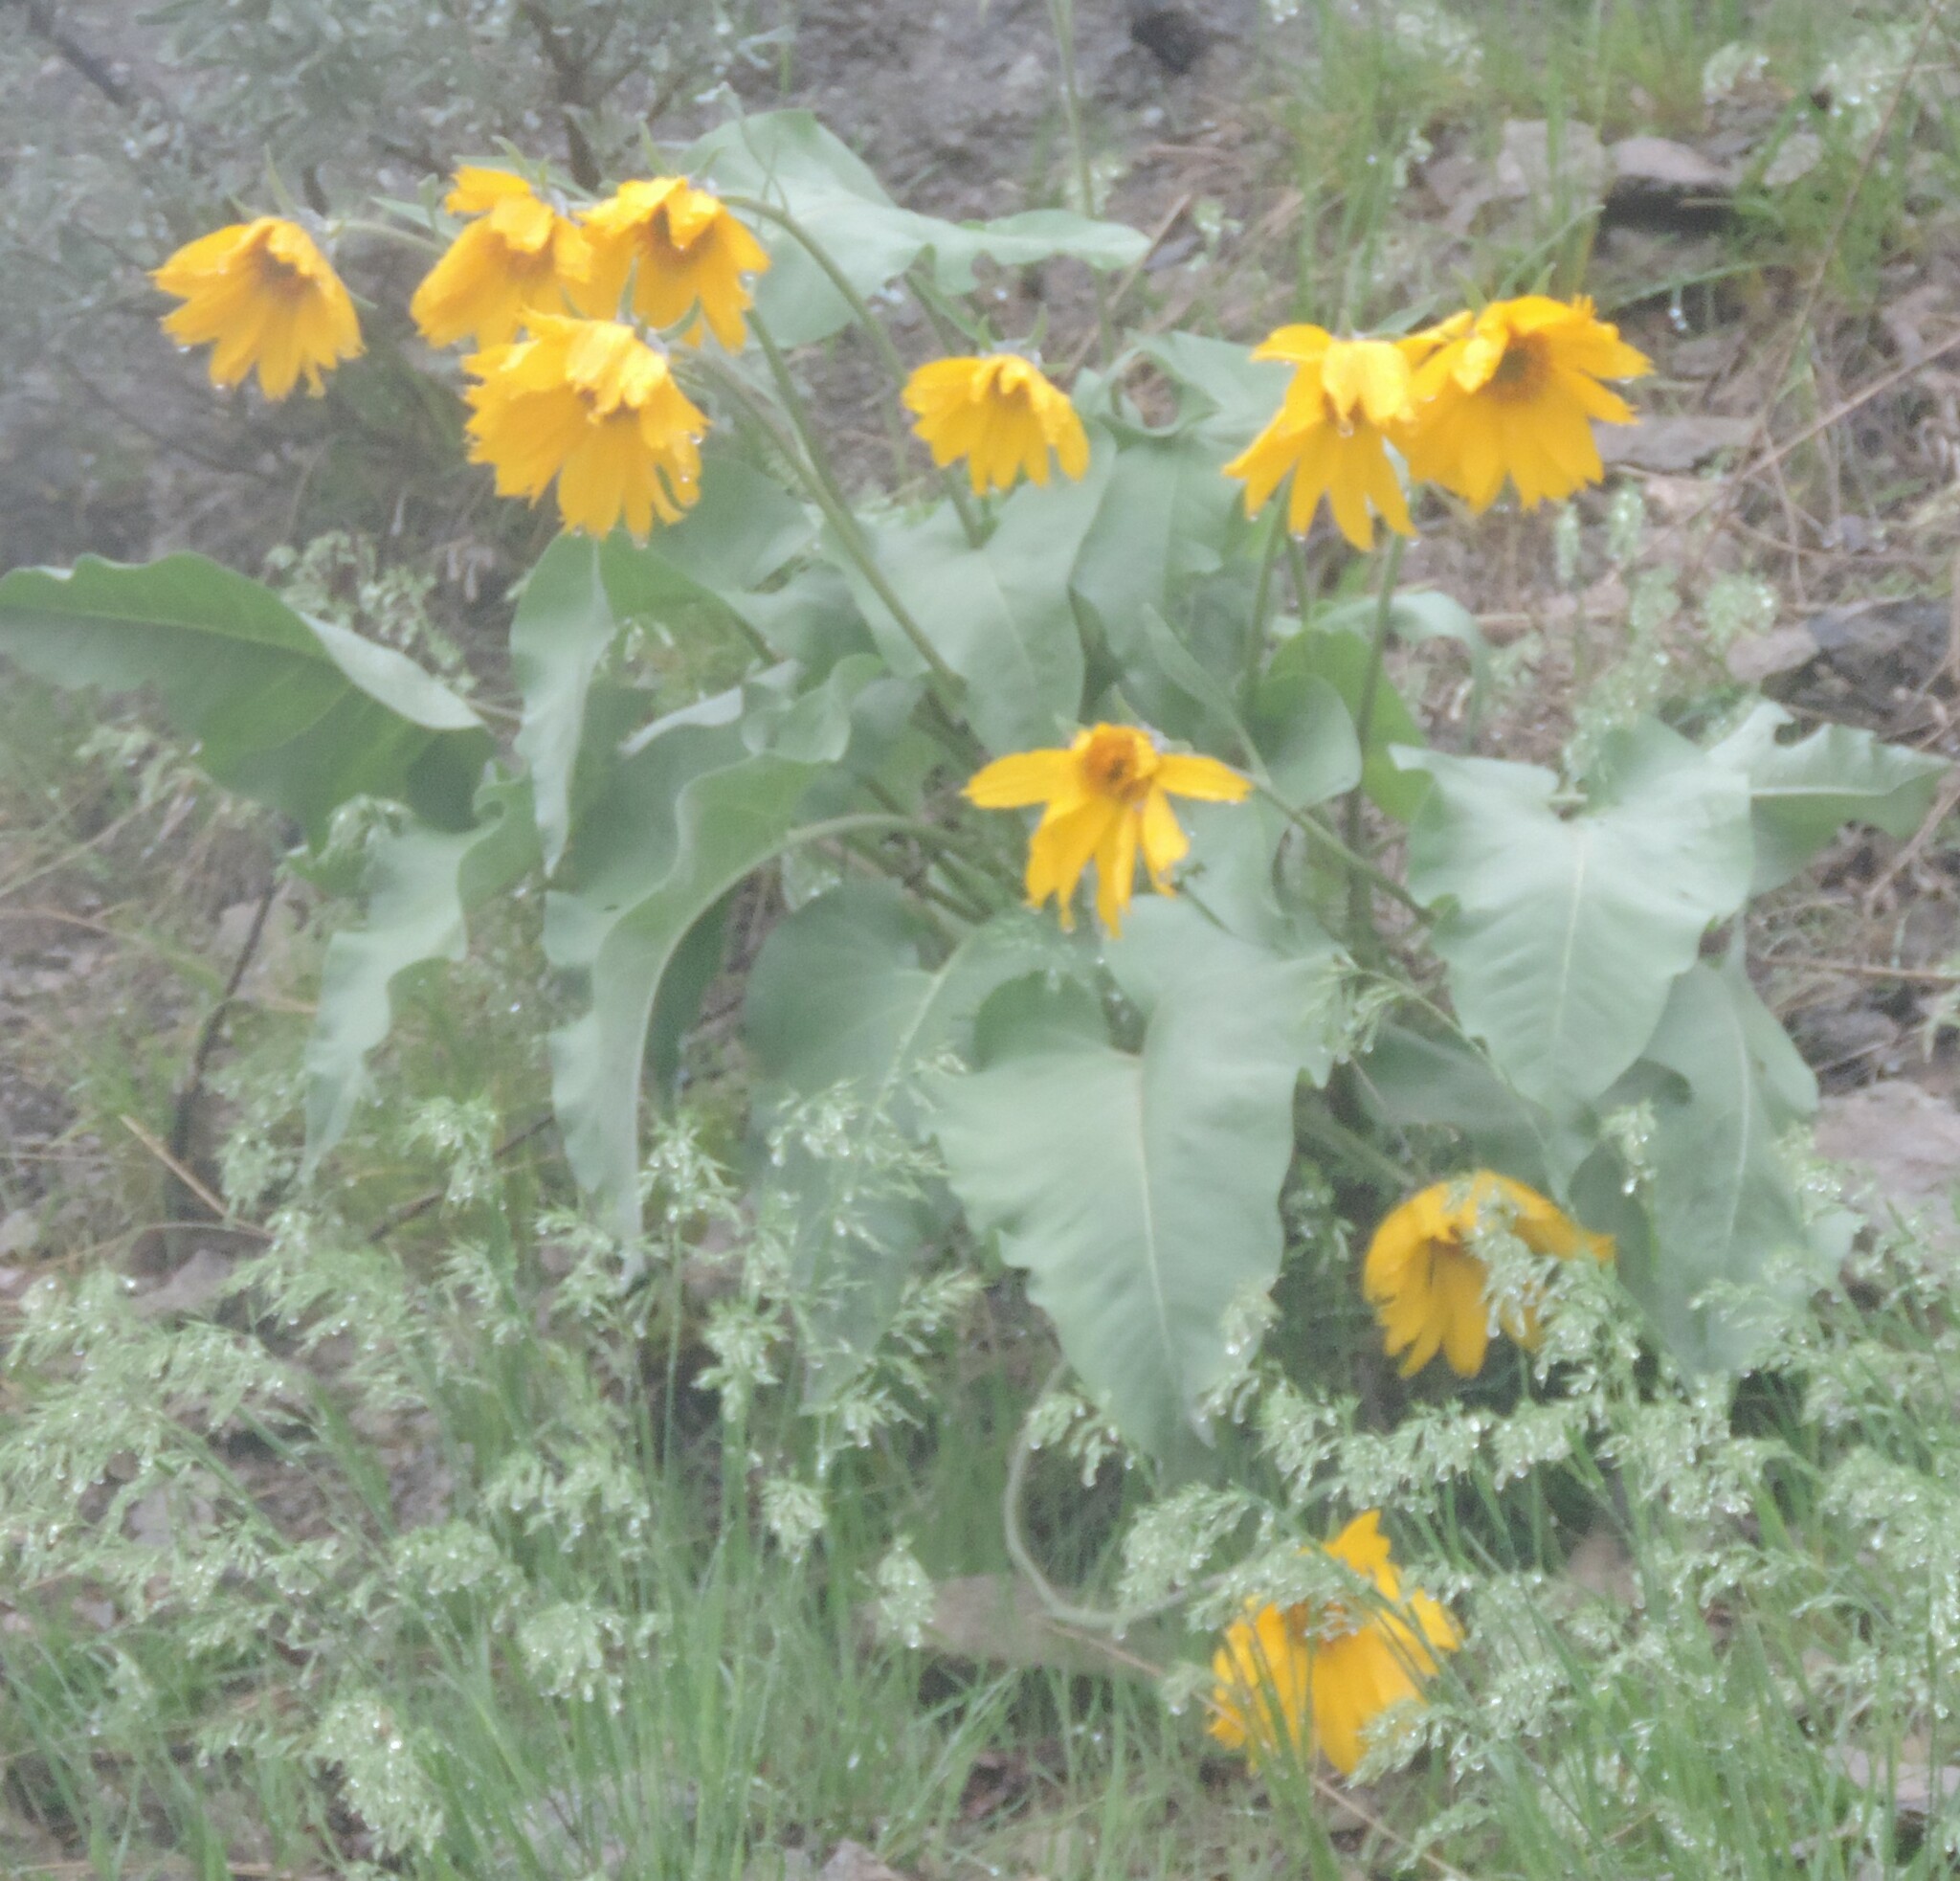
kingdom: Plantae
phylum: Tracheophyta
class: Magnoliopsida
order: Asterales
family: Asteraceae
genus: Wyethia
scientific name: Wyethia sagittata
